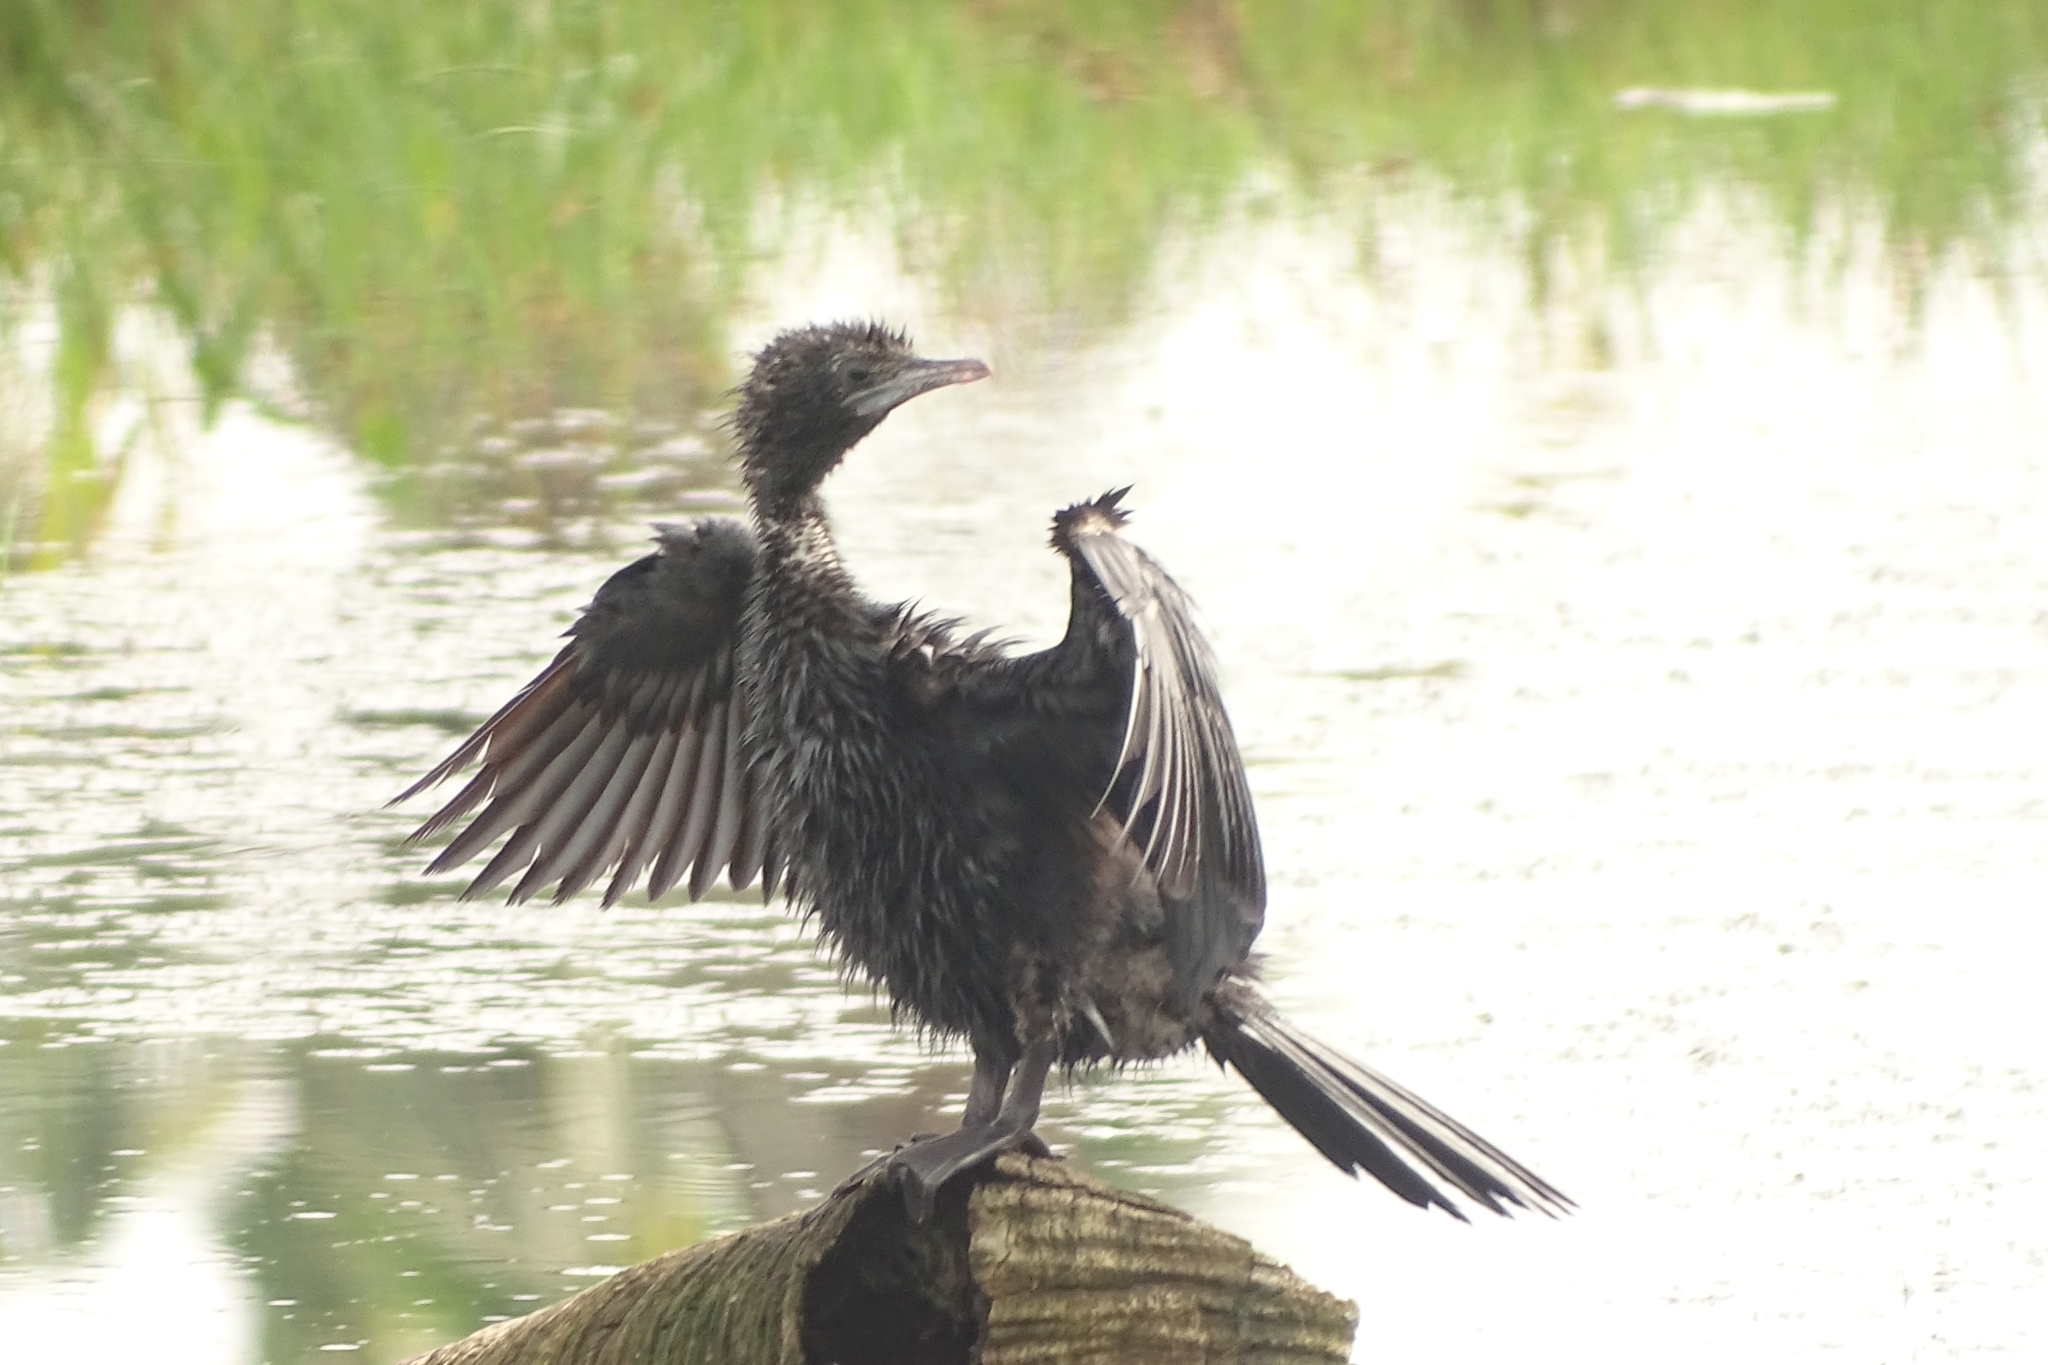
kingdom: Animalia
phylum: Chordata
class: Aves
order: Suliformes
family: Phalacrocoracidae
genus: Microcarbo
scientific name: Microcarbo niger
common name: Little cormorant
